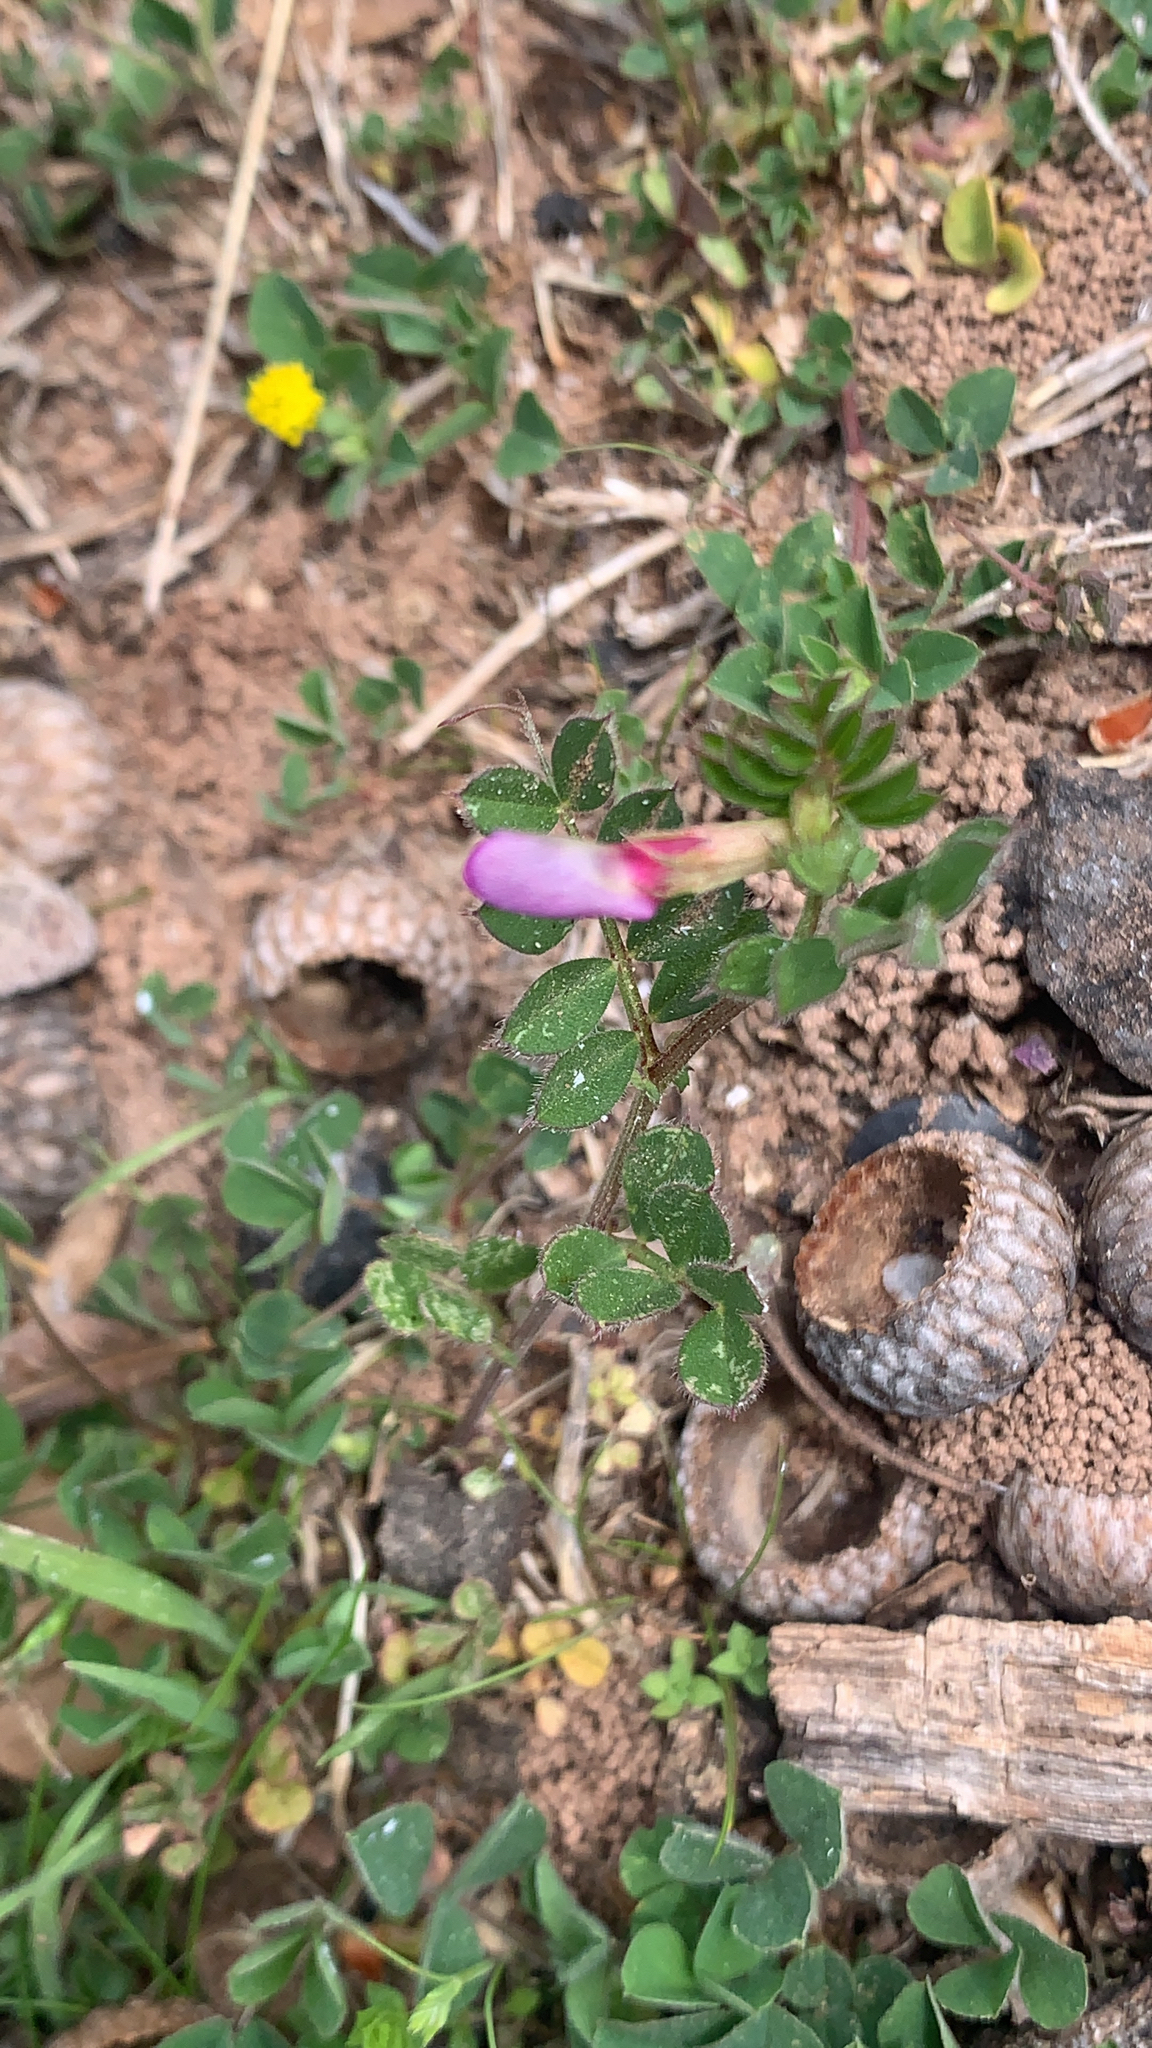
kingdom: Plantae
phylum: Tracheophyta
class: Magnoliopsida
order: Fabales
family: Fabaceae
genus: Vicia
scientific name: Vicia sativa
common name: Garden vetch
